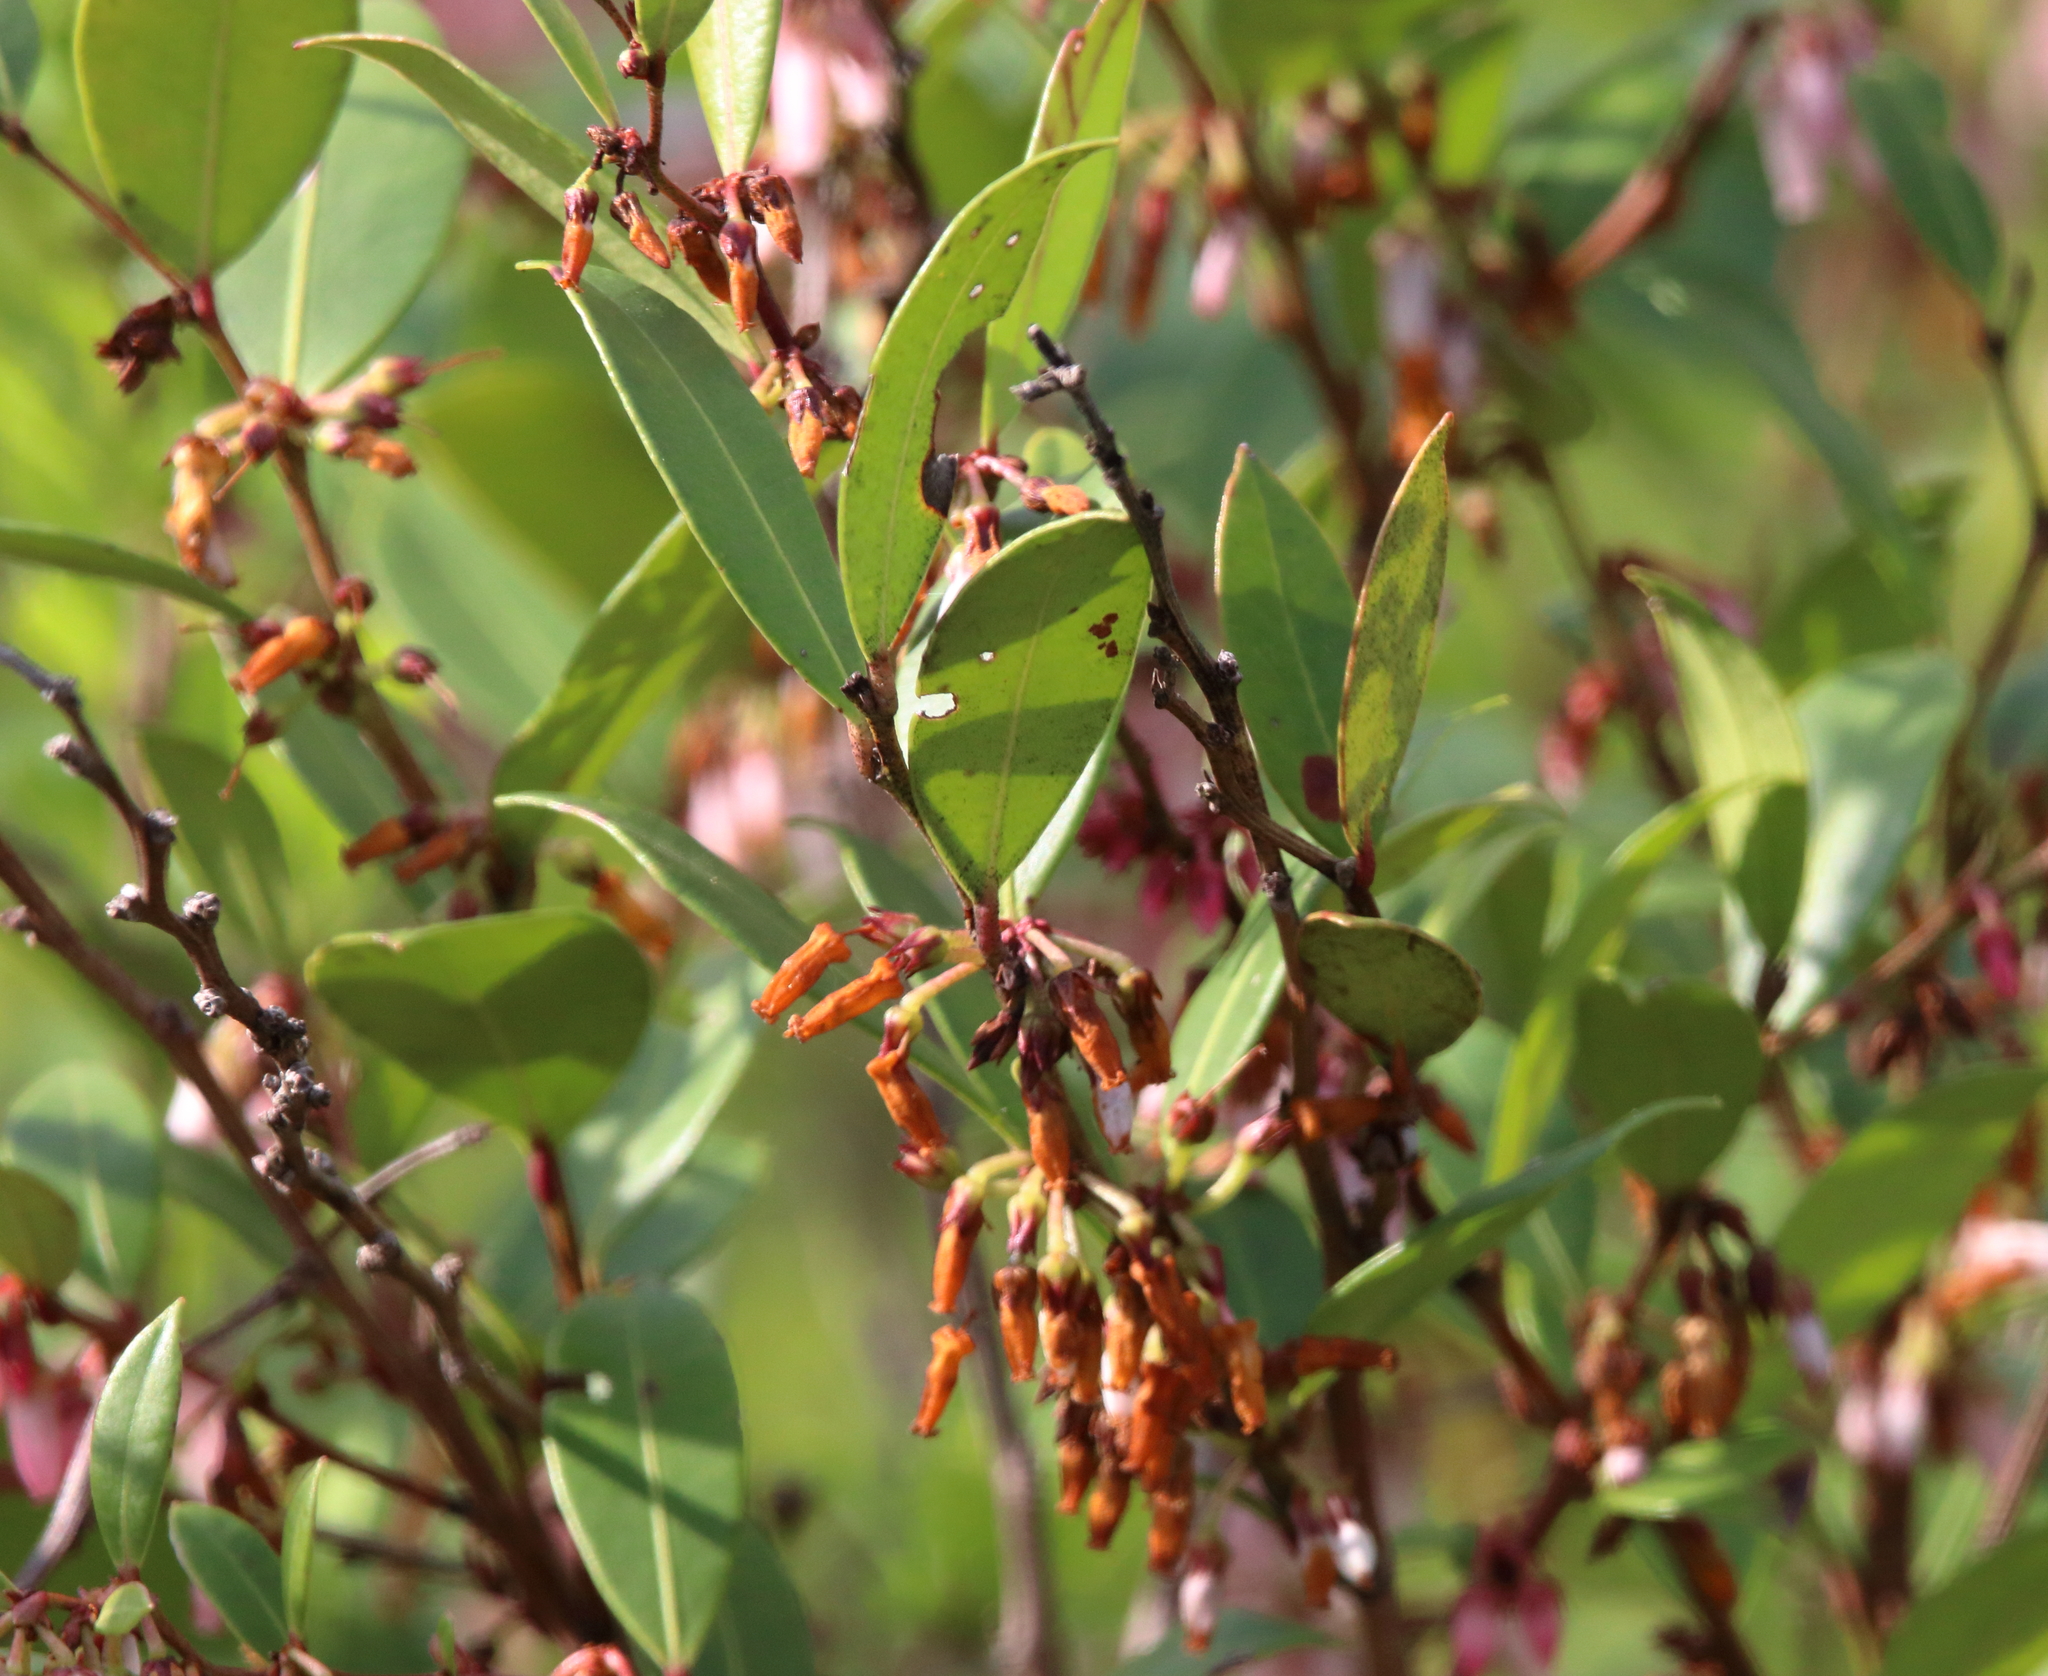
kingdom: Plantae
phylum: Tracheophyta
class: Magnoliopsida
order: Ericales
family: Ericaceae
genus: Lyonia
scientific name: Lyonia lucida
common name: Fetterbush
